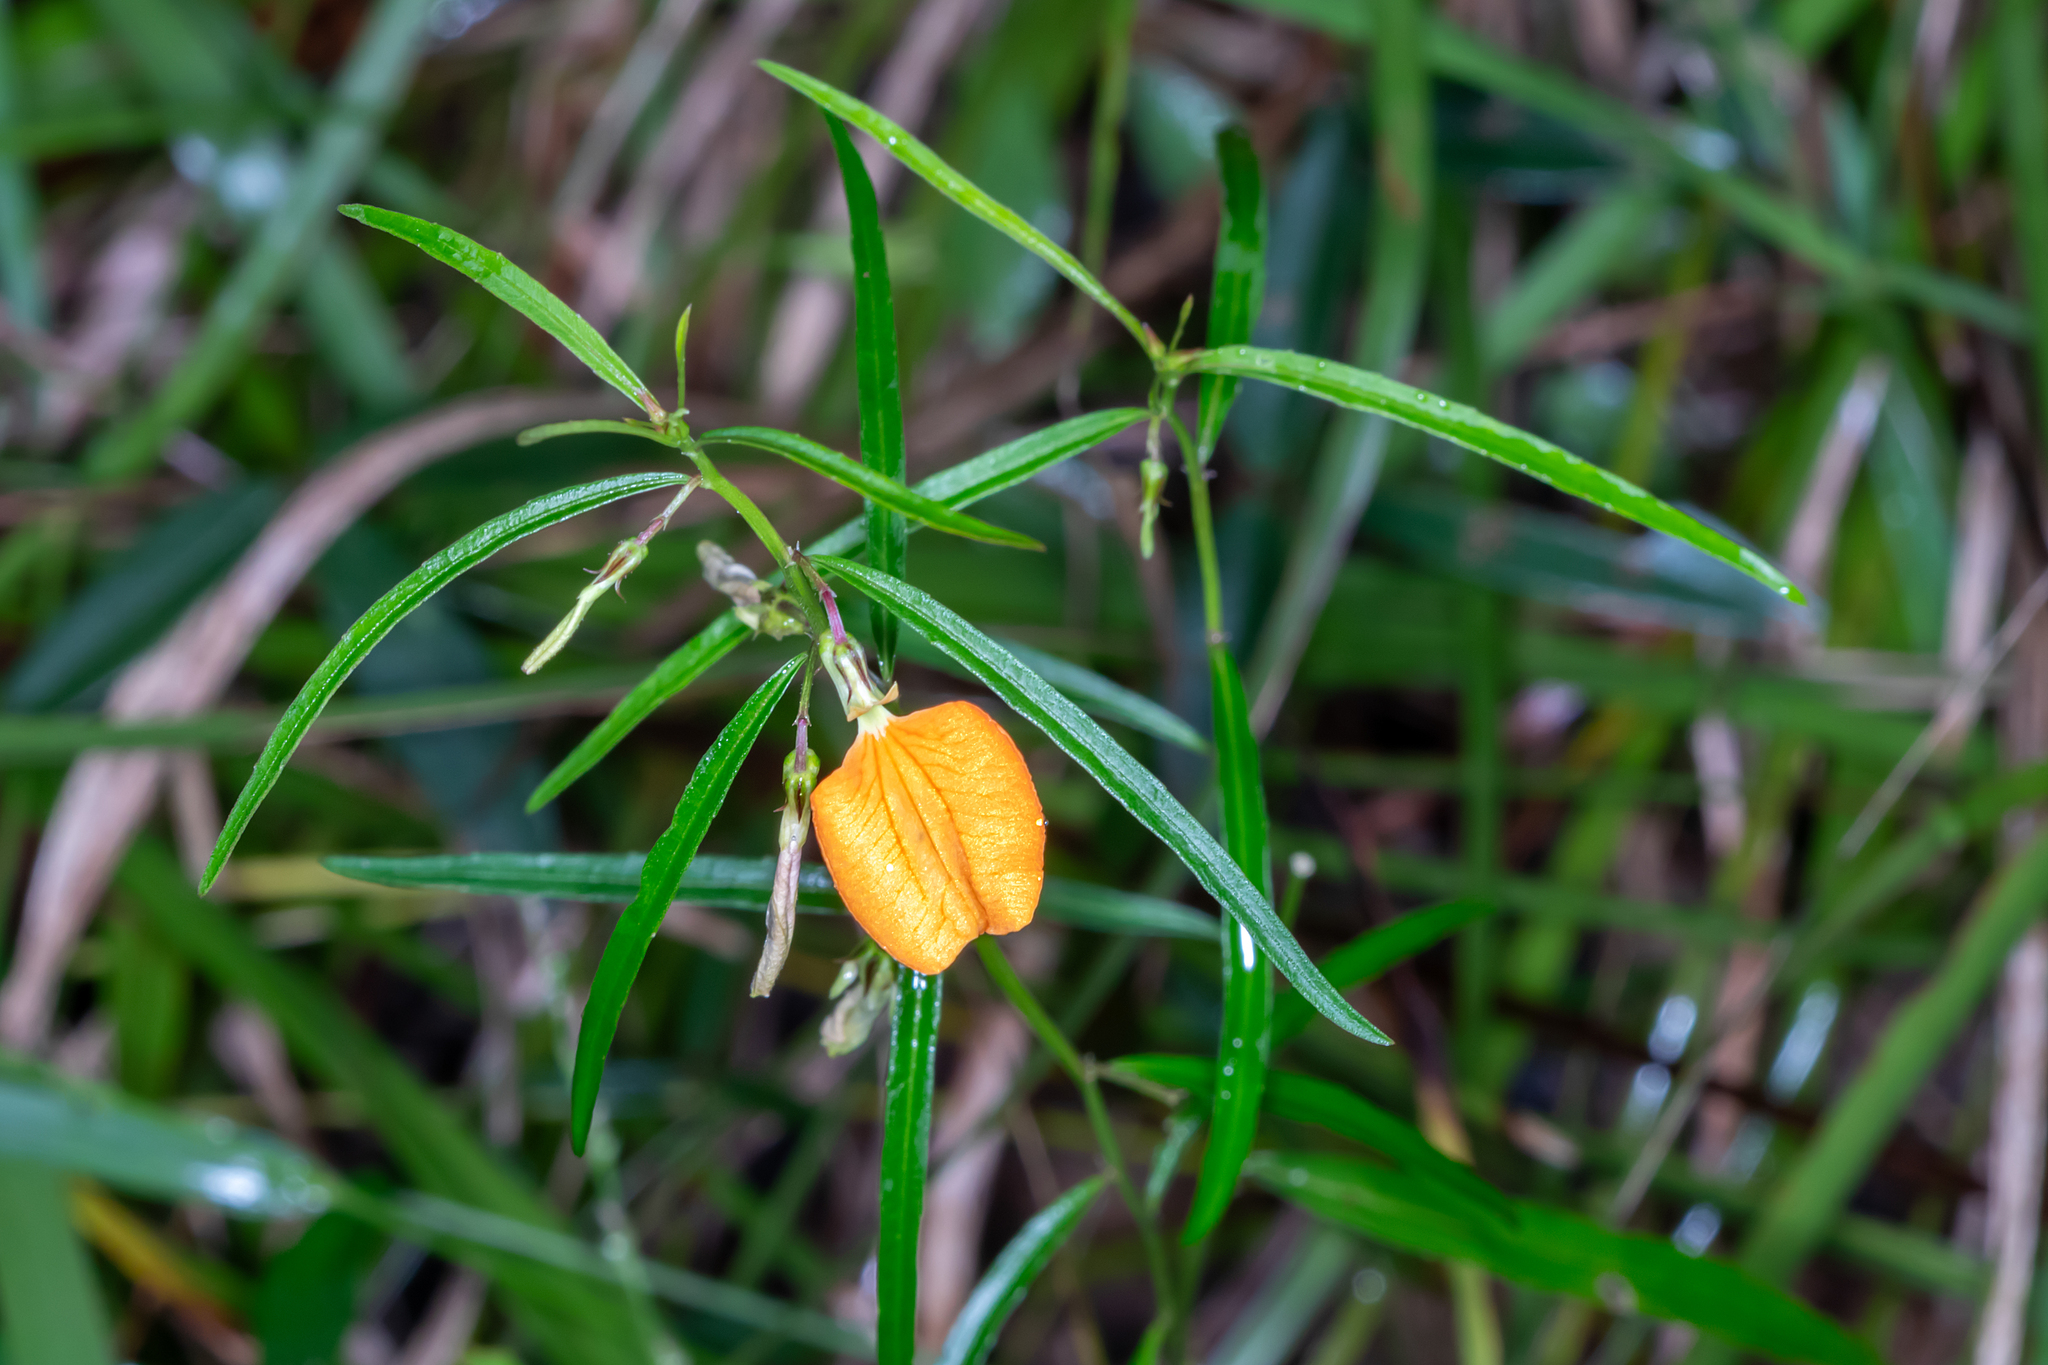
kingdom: Plantae
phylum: Tracheophyta
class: Magnoliopsida
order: Malpighiales
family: Violaceae
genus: Pigea
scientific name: Pigea stellarioides
